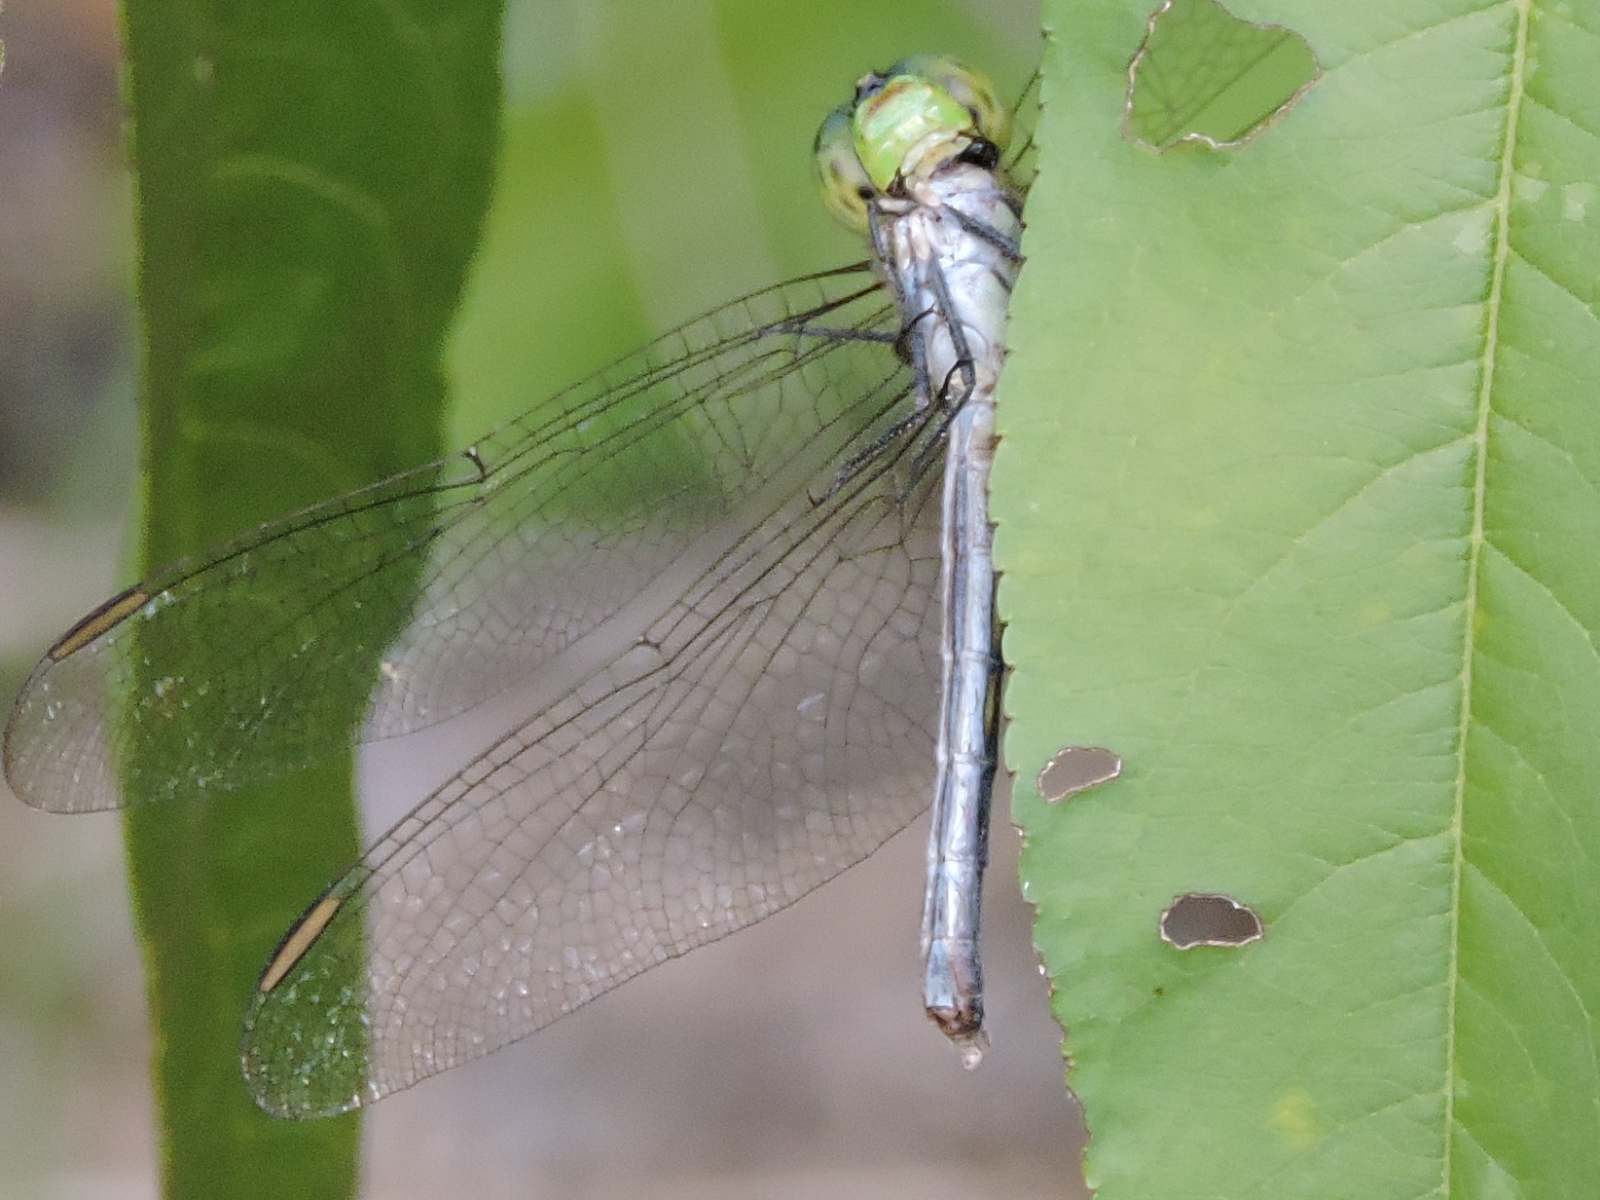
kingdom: Animalia
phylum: Arthropoda
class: Insecta
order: Odonata
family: Libellulidae
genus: Erythemis
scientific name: Erythemis simplicicollis
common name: Eastern pondhawk
